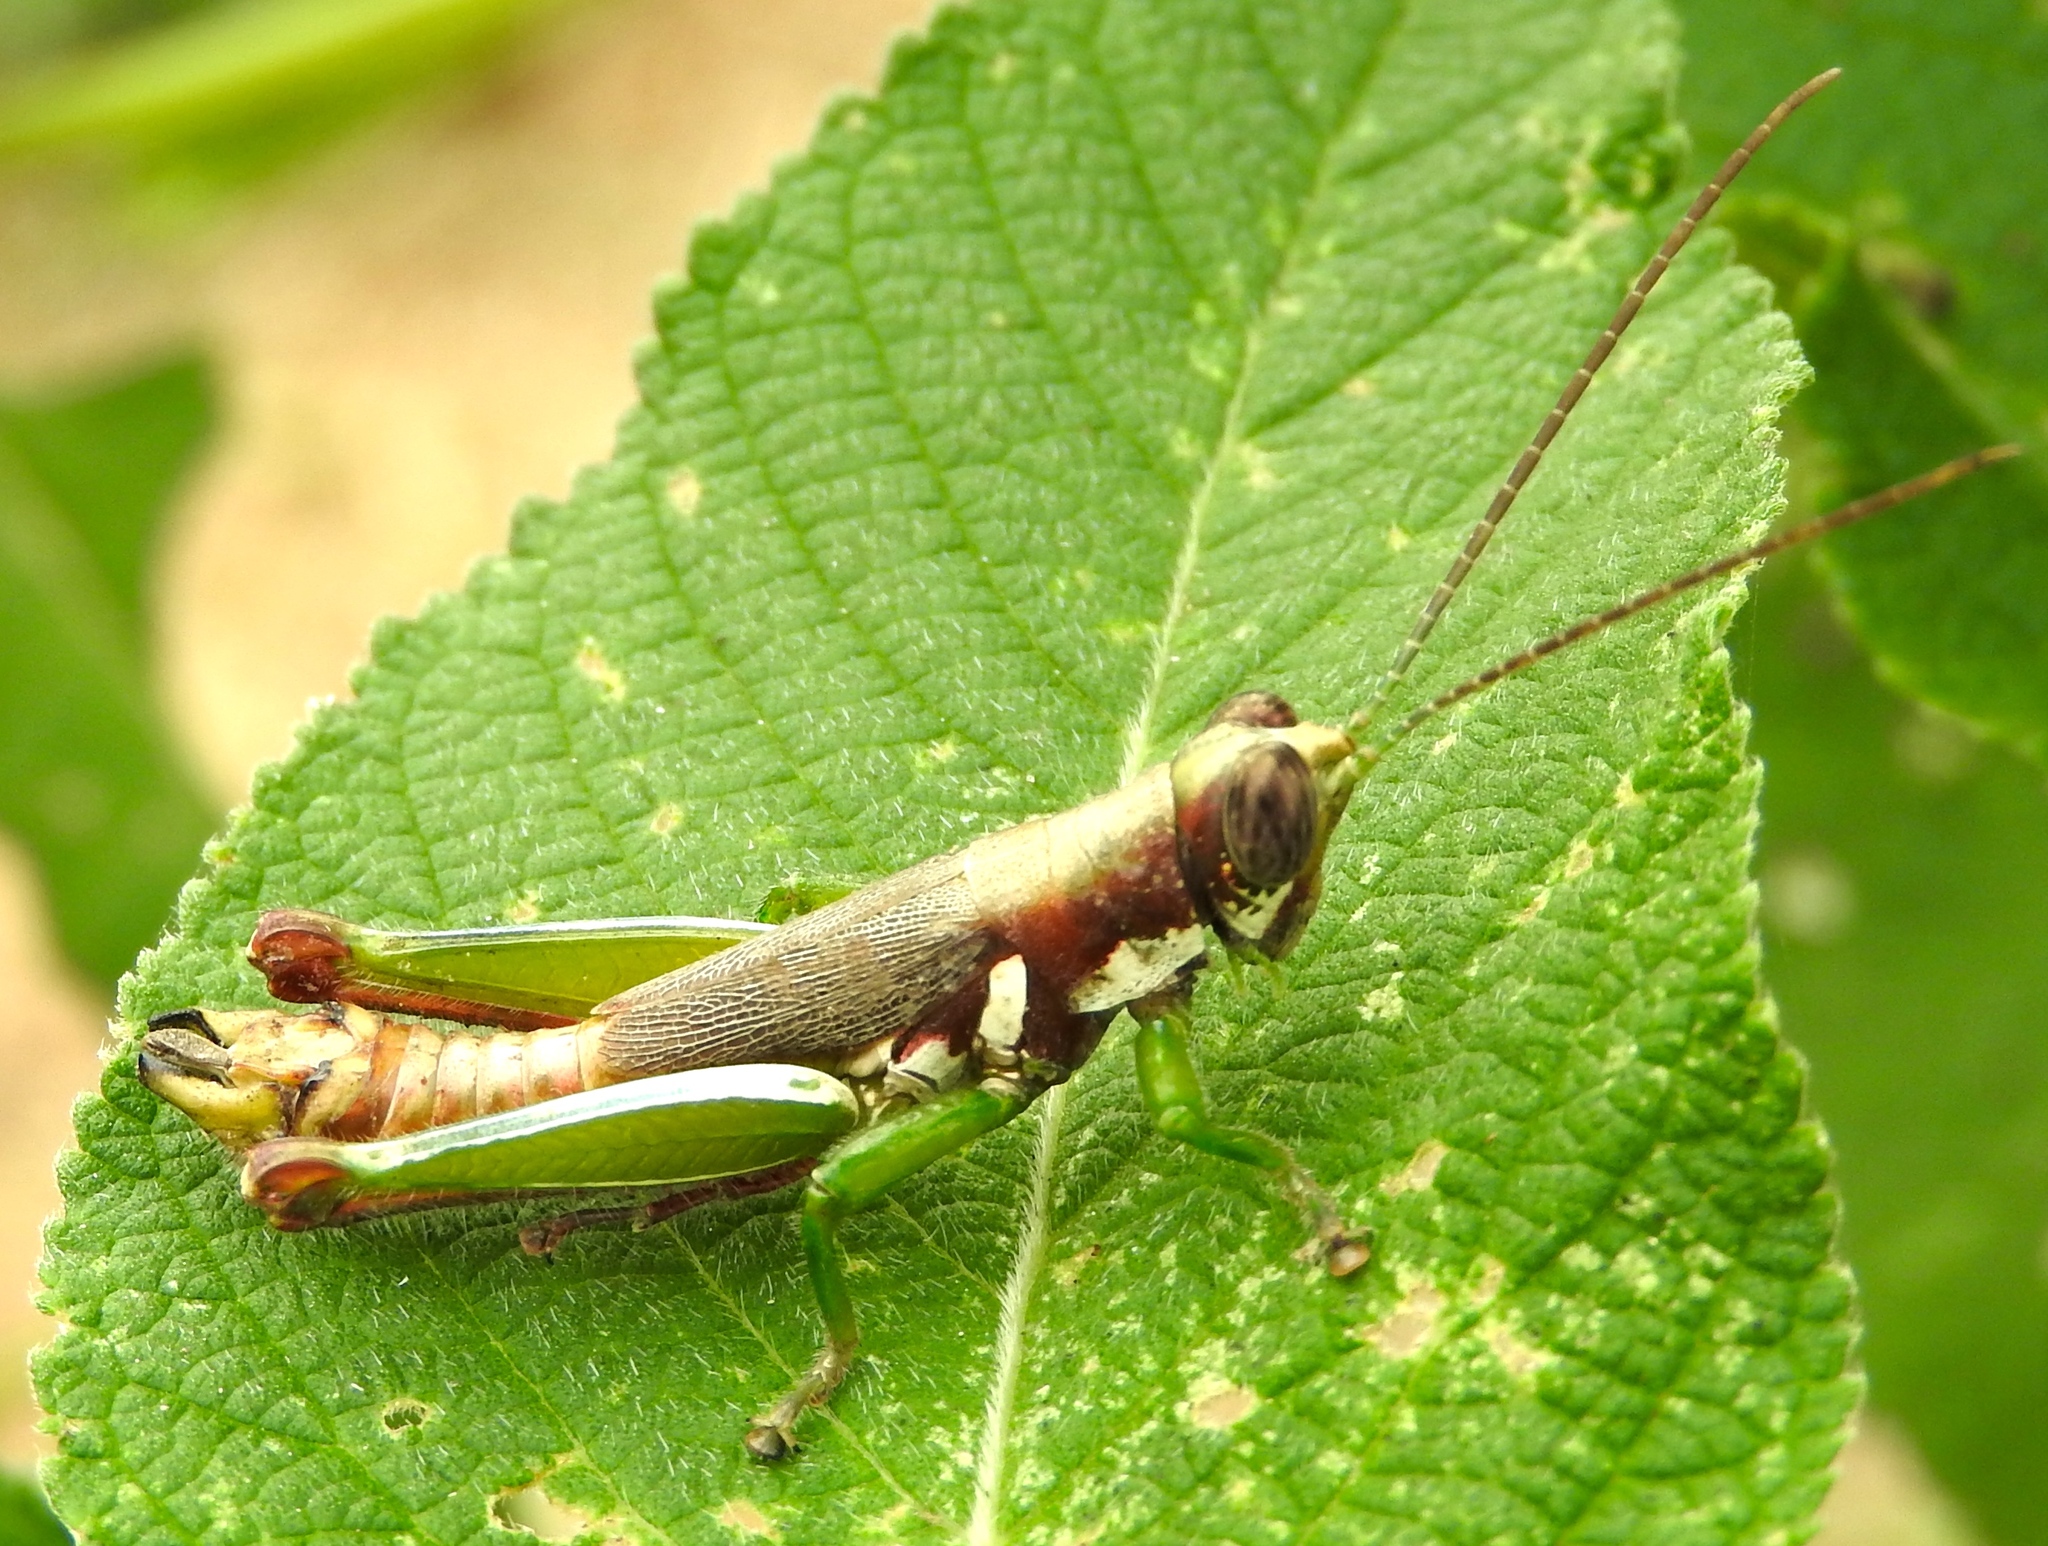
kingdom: Animalia
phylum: Arthropoda
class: Insecta
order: Orthoptera
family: Acrididae
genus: Proctolabus
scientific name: Proctolabus cerciatus
